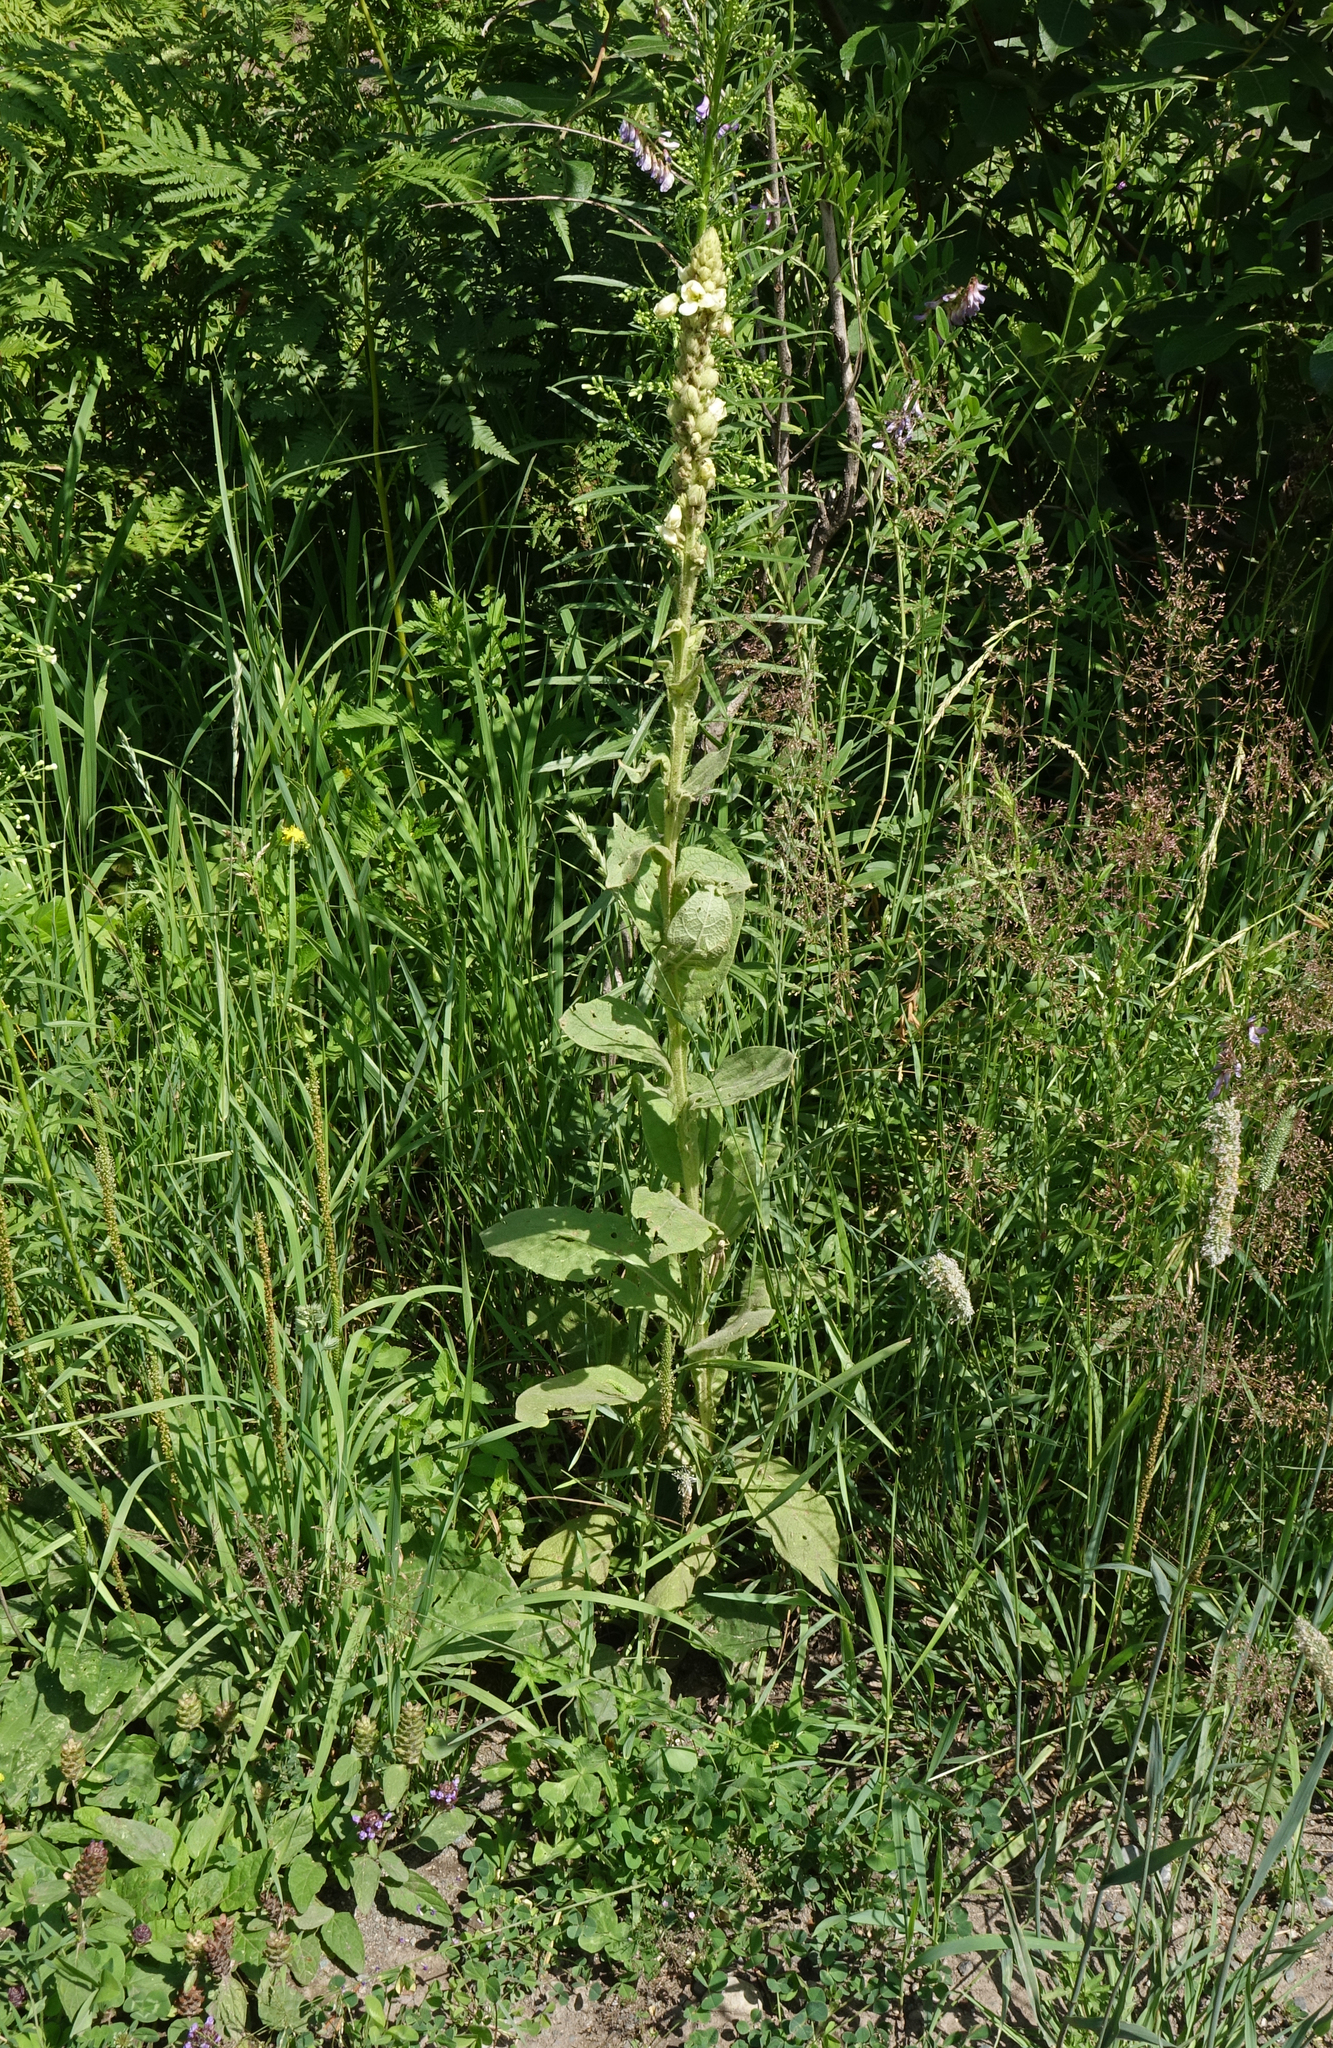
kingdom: Plantae
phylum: Tracheophyta
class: Magnoliopsida
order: Lamiales
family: Scrophulariaceae
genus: Verbascum
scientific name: Verbascum thapsus
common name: Common mullein
